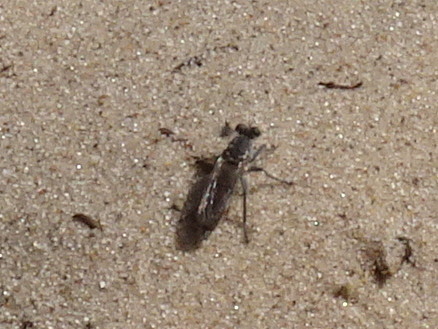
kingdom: Animalia
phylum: Arthropoda
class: Insecta
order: Diptera
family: Asilidae
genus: Stichopogon
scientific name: Stichopogon trifasciatus
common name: Three-banded robber fly
